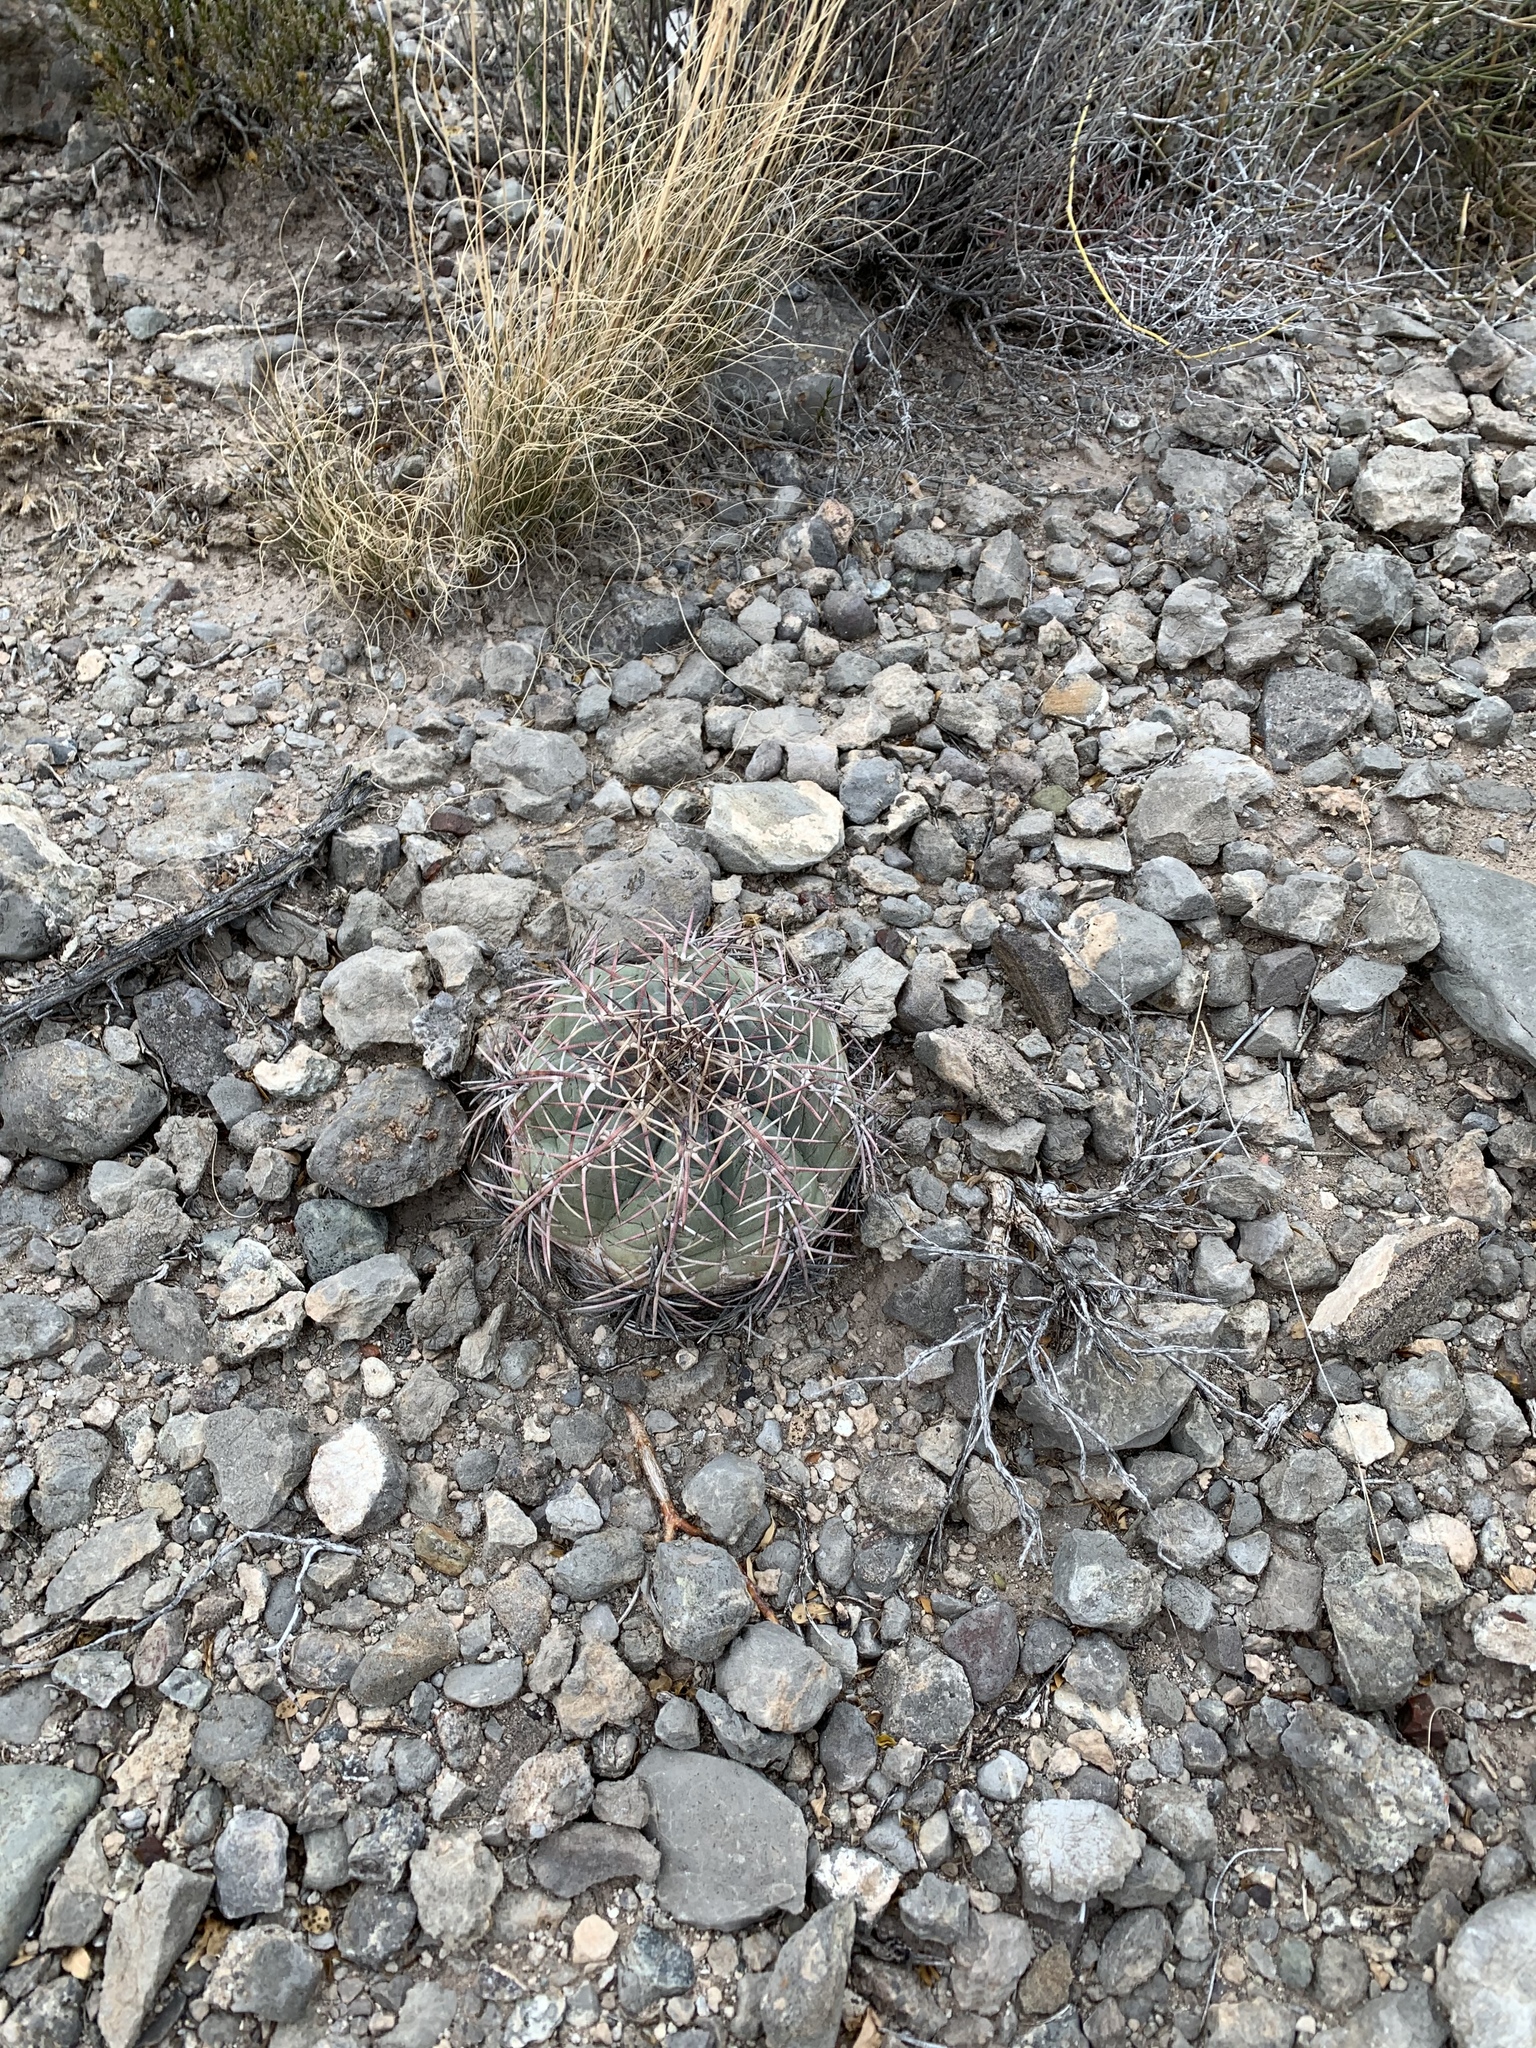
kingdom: Plantae
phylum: Tracheophyta
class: Magnoliopsida
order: Caryophyllales
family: Cactaceae
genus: Echinocactus
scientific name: Echinocactus horizonthalonius
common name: Devilshead
